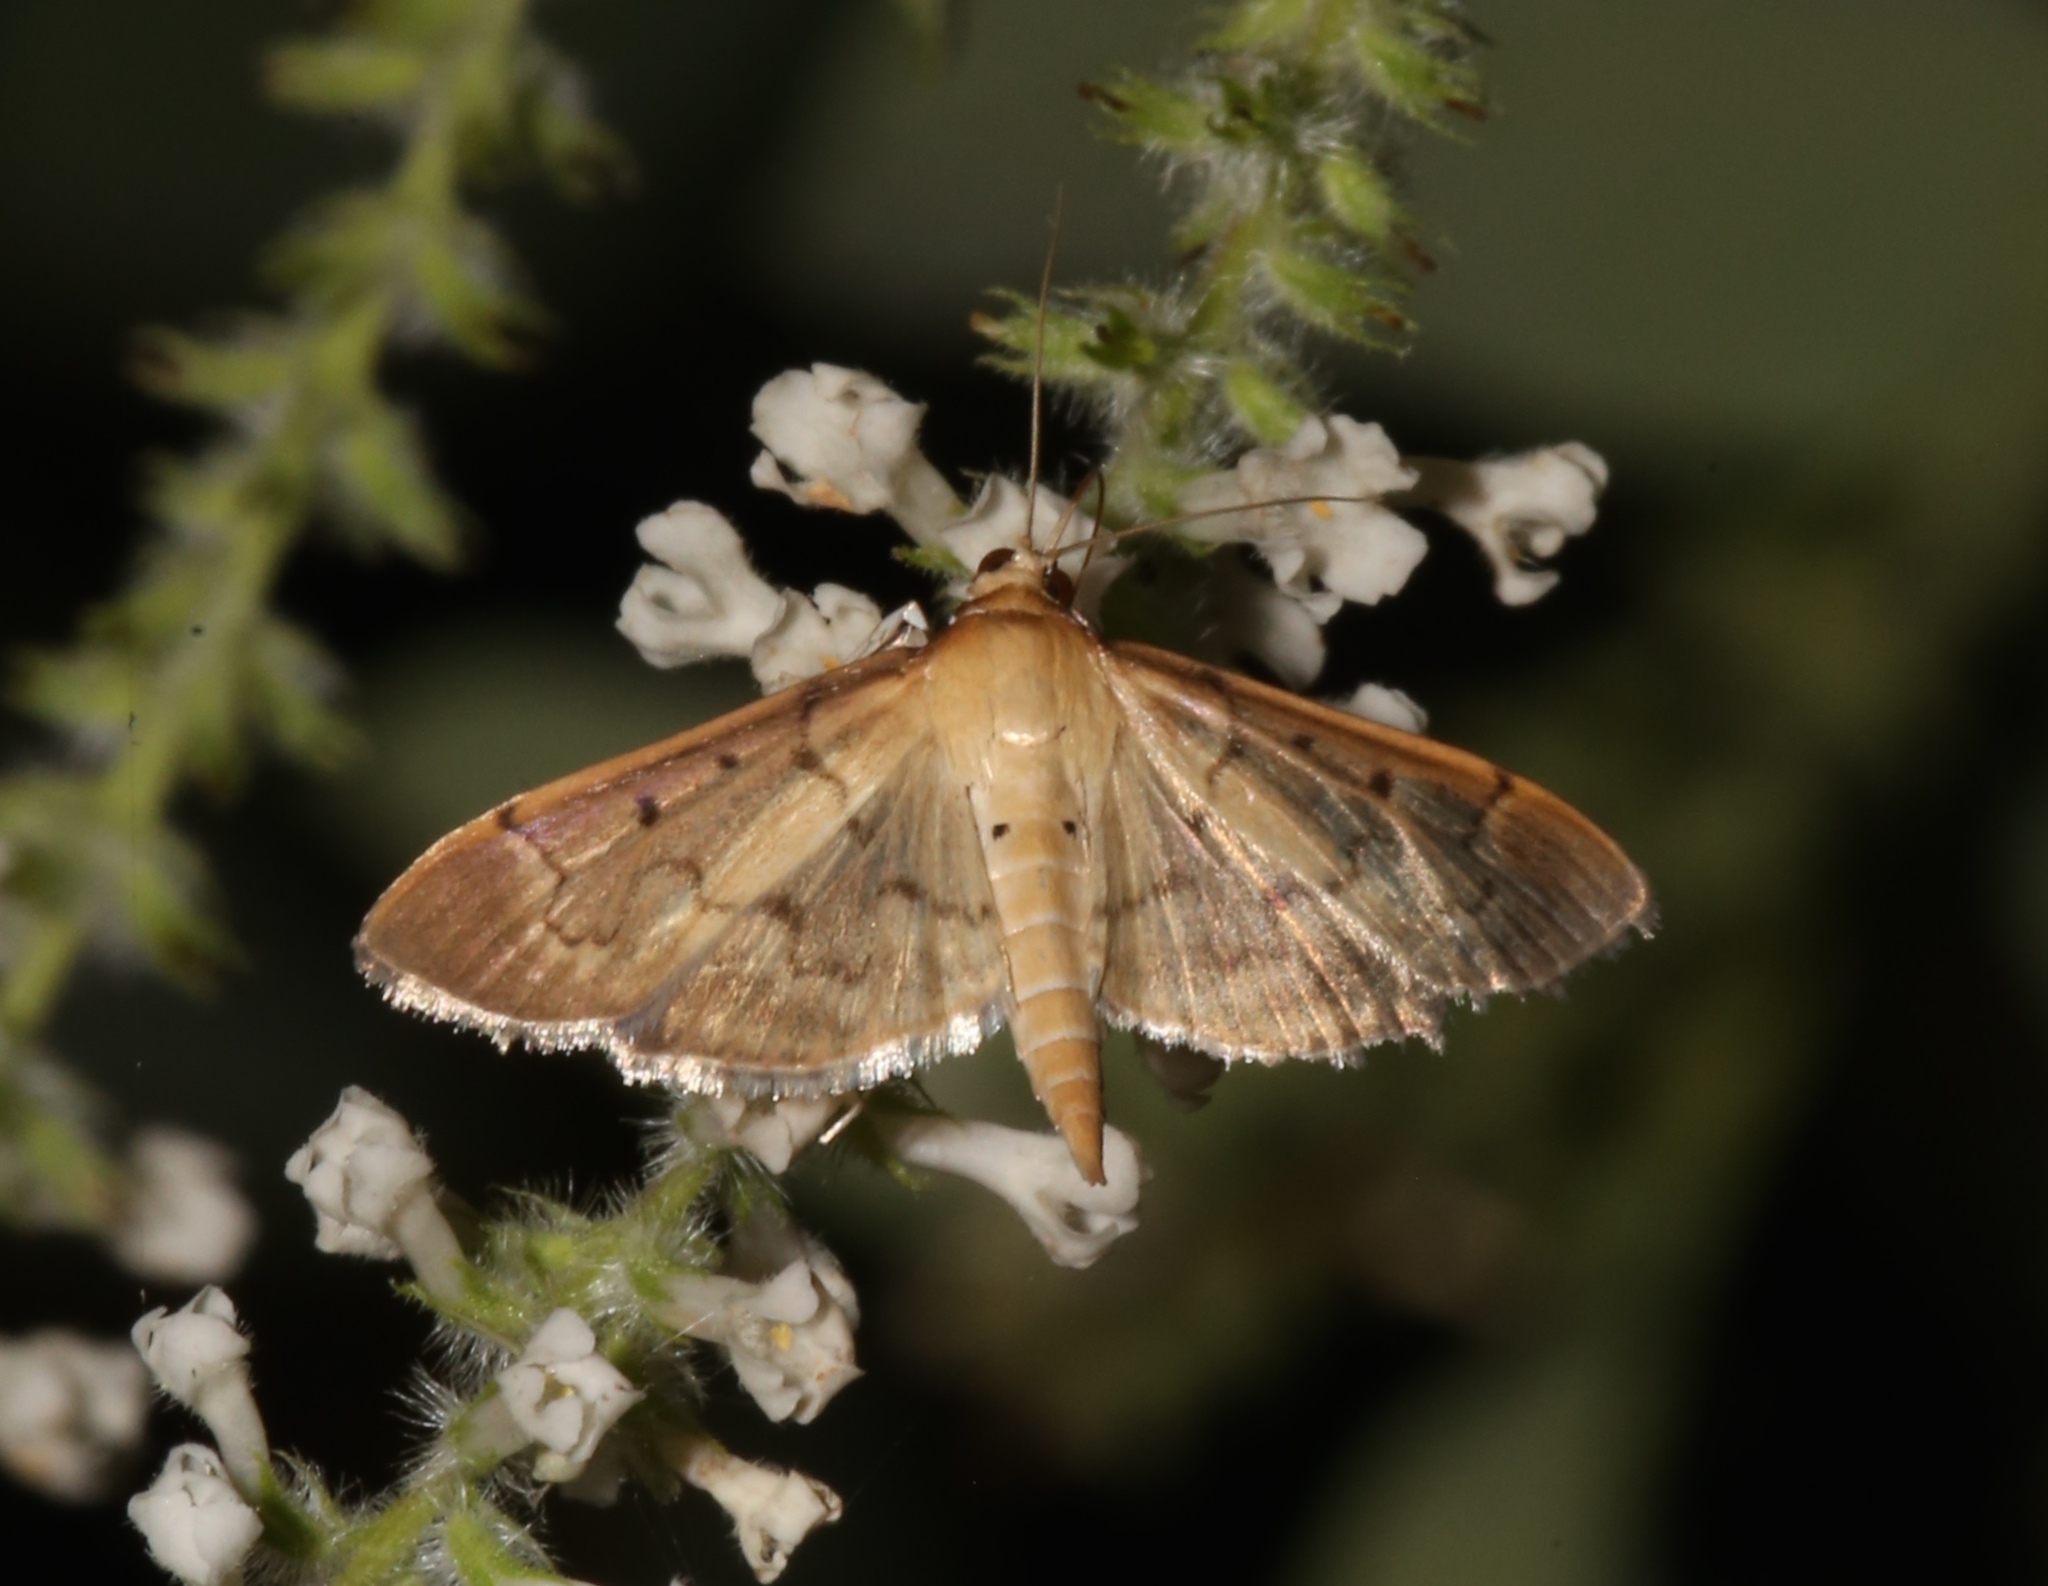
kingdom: Animalia
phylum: Arthropoda
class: Insecta
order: Lepidoptera
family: Crambidae
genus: Herpetogramma
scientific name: Herpetogramma bipunctalis
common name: Southern beet webworm
